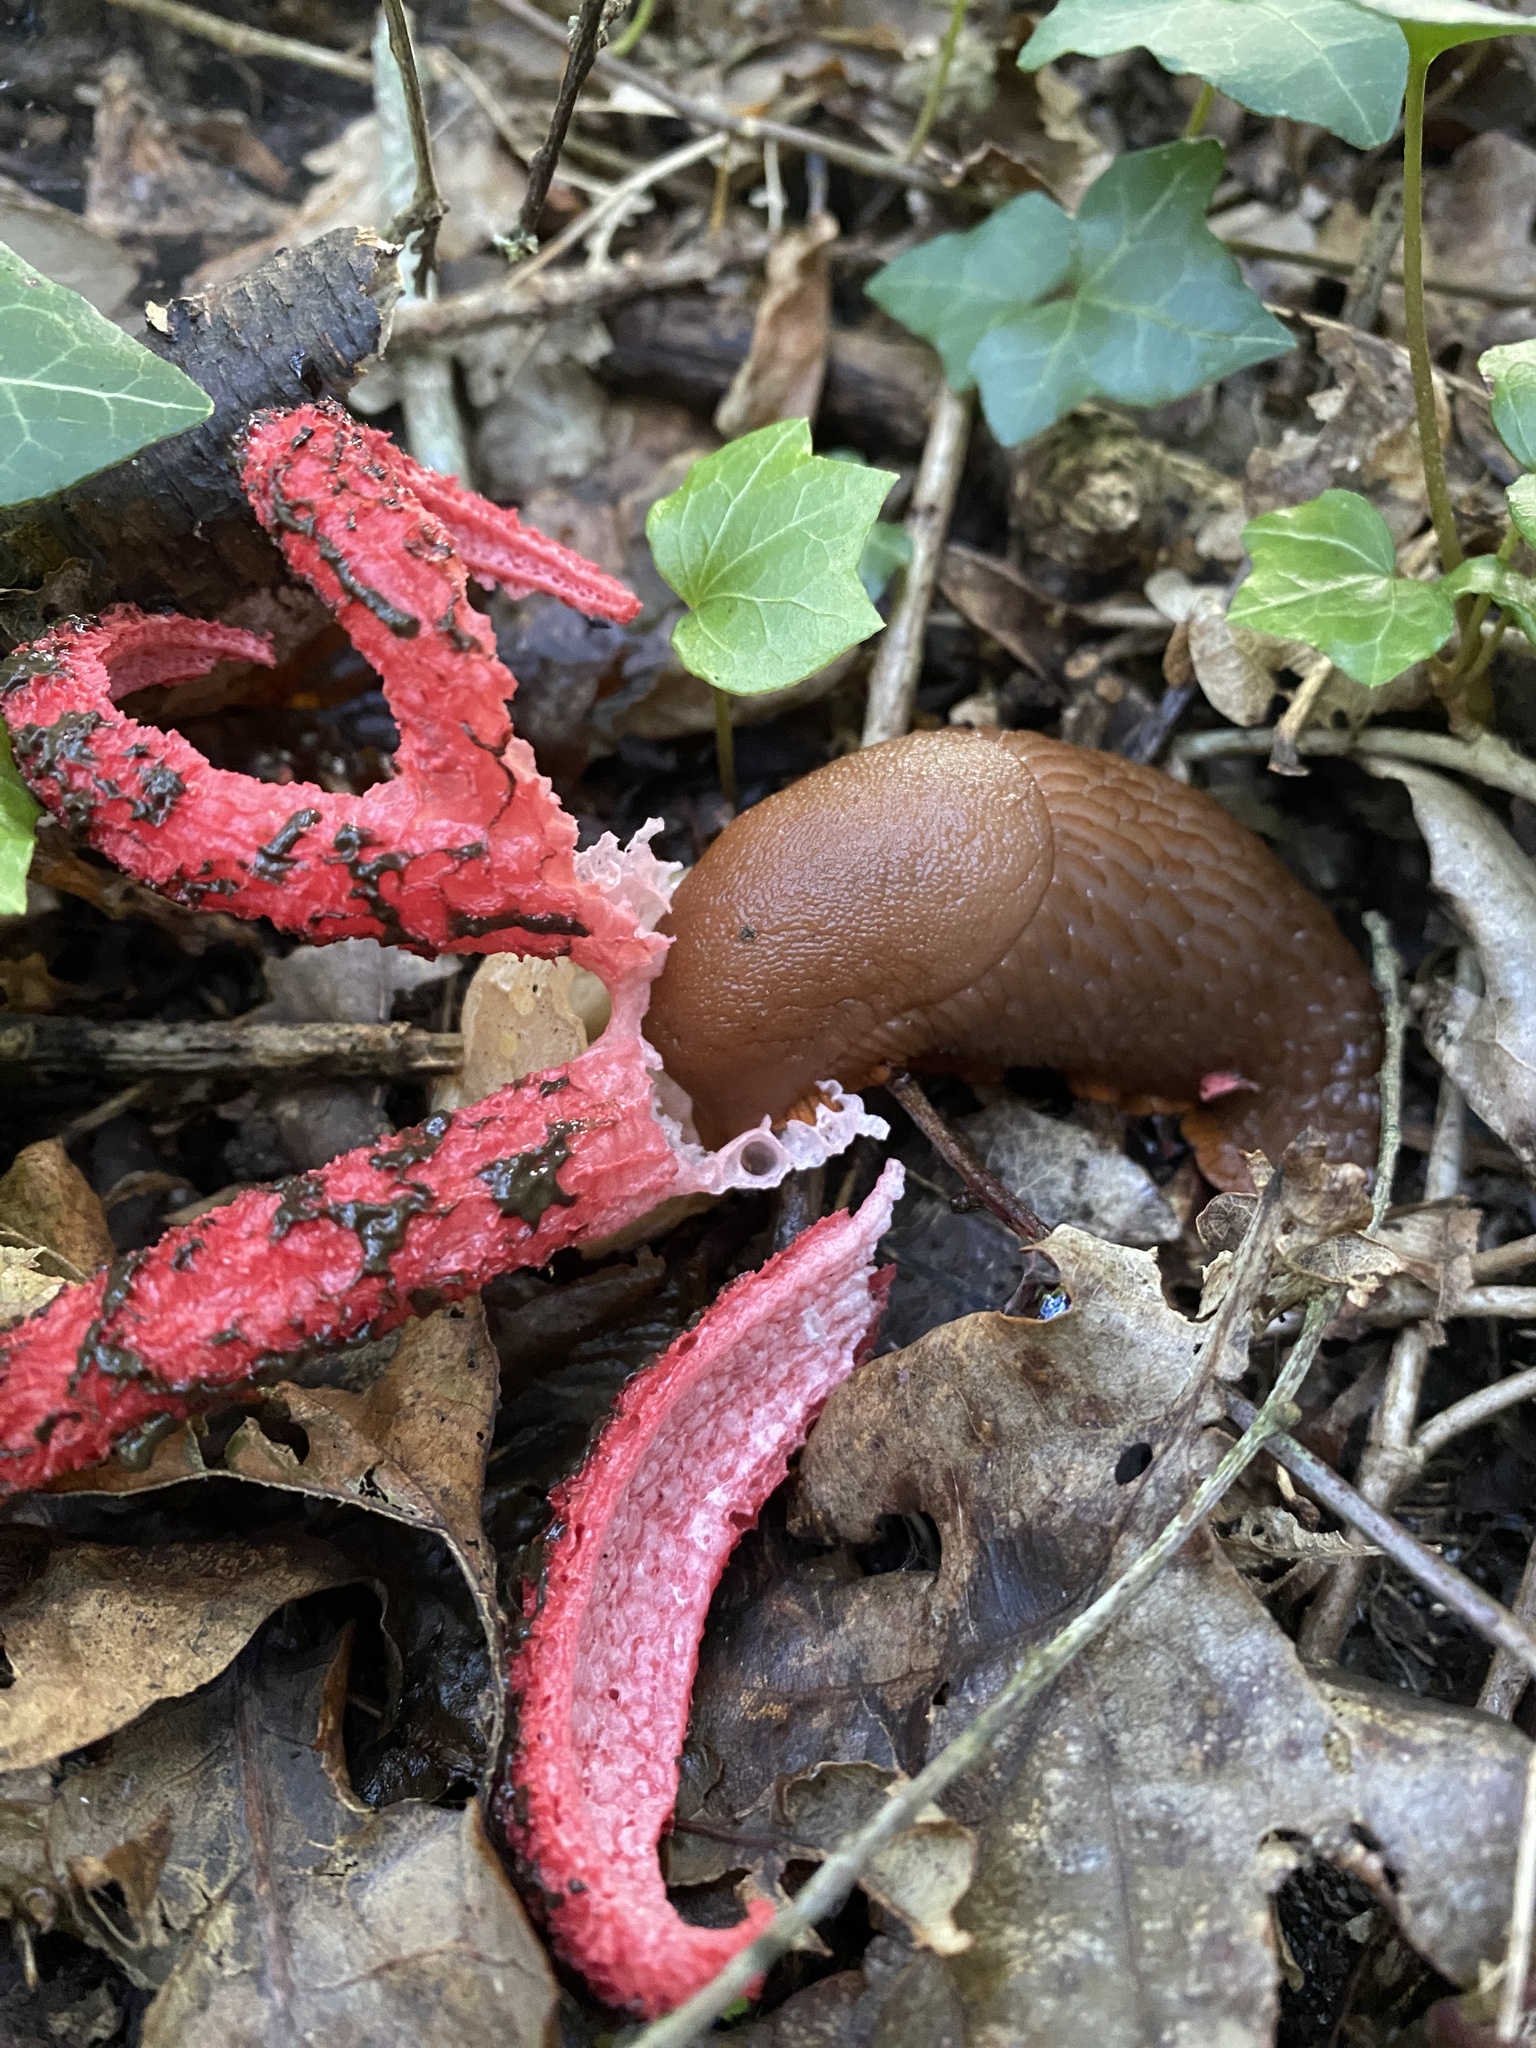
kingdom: Fungi
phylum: Basidiomycota
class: Agaricomycetes
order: Phallales
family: Phallaceae
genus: Clathrus
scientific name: Clathrus archeri
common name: Devil's fingers
